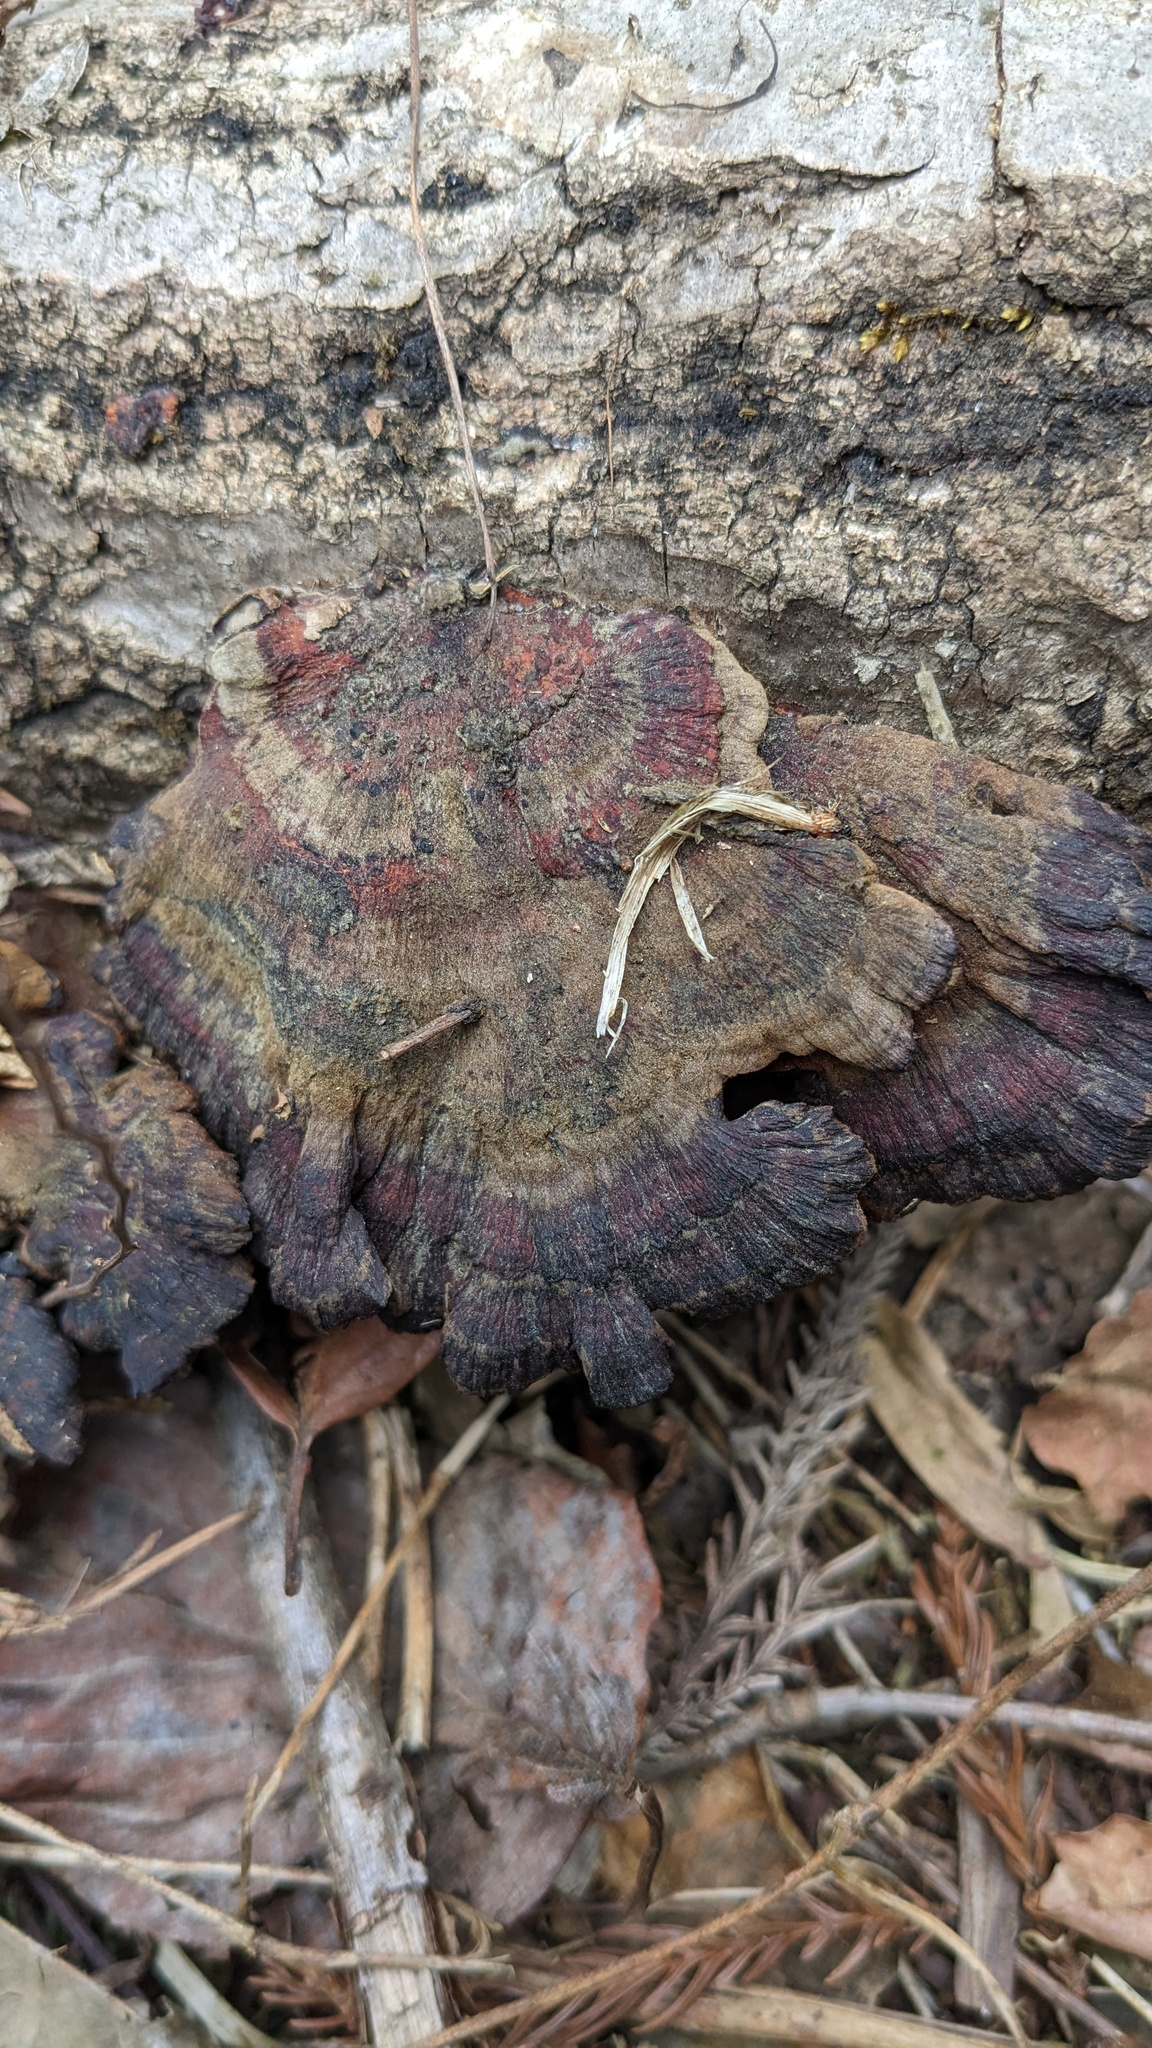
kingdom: Fungi
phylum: Basidiomycota
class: Agaricomycetes
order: Polyporales
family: Polyporaceae
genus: Daedaleopsis
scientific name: Daedaleopsis tricolor
